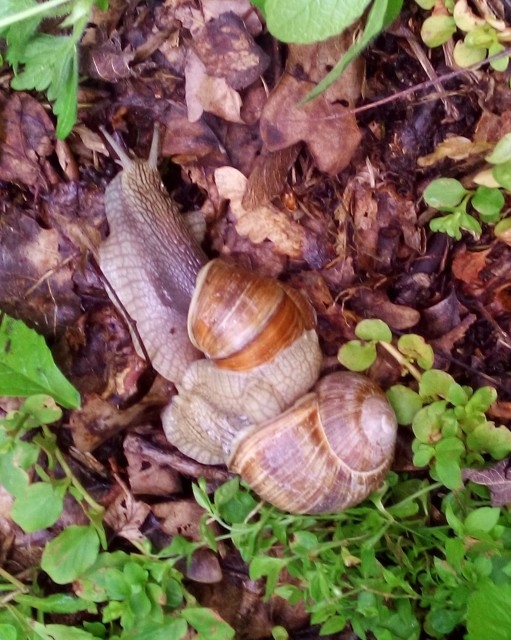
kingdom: Animalia
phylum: Mollusca
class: Gastropoda
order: Stylommatophora
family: Helicidae
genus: Helix
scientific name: Helix pomatia
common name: Roman snail
